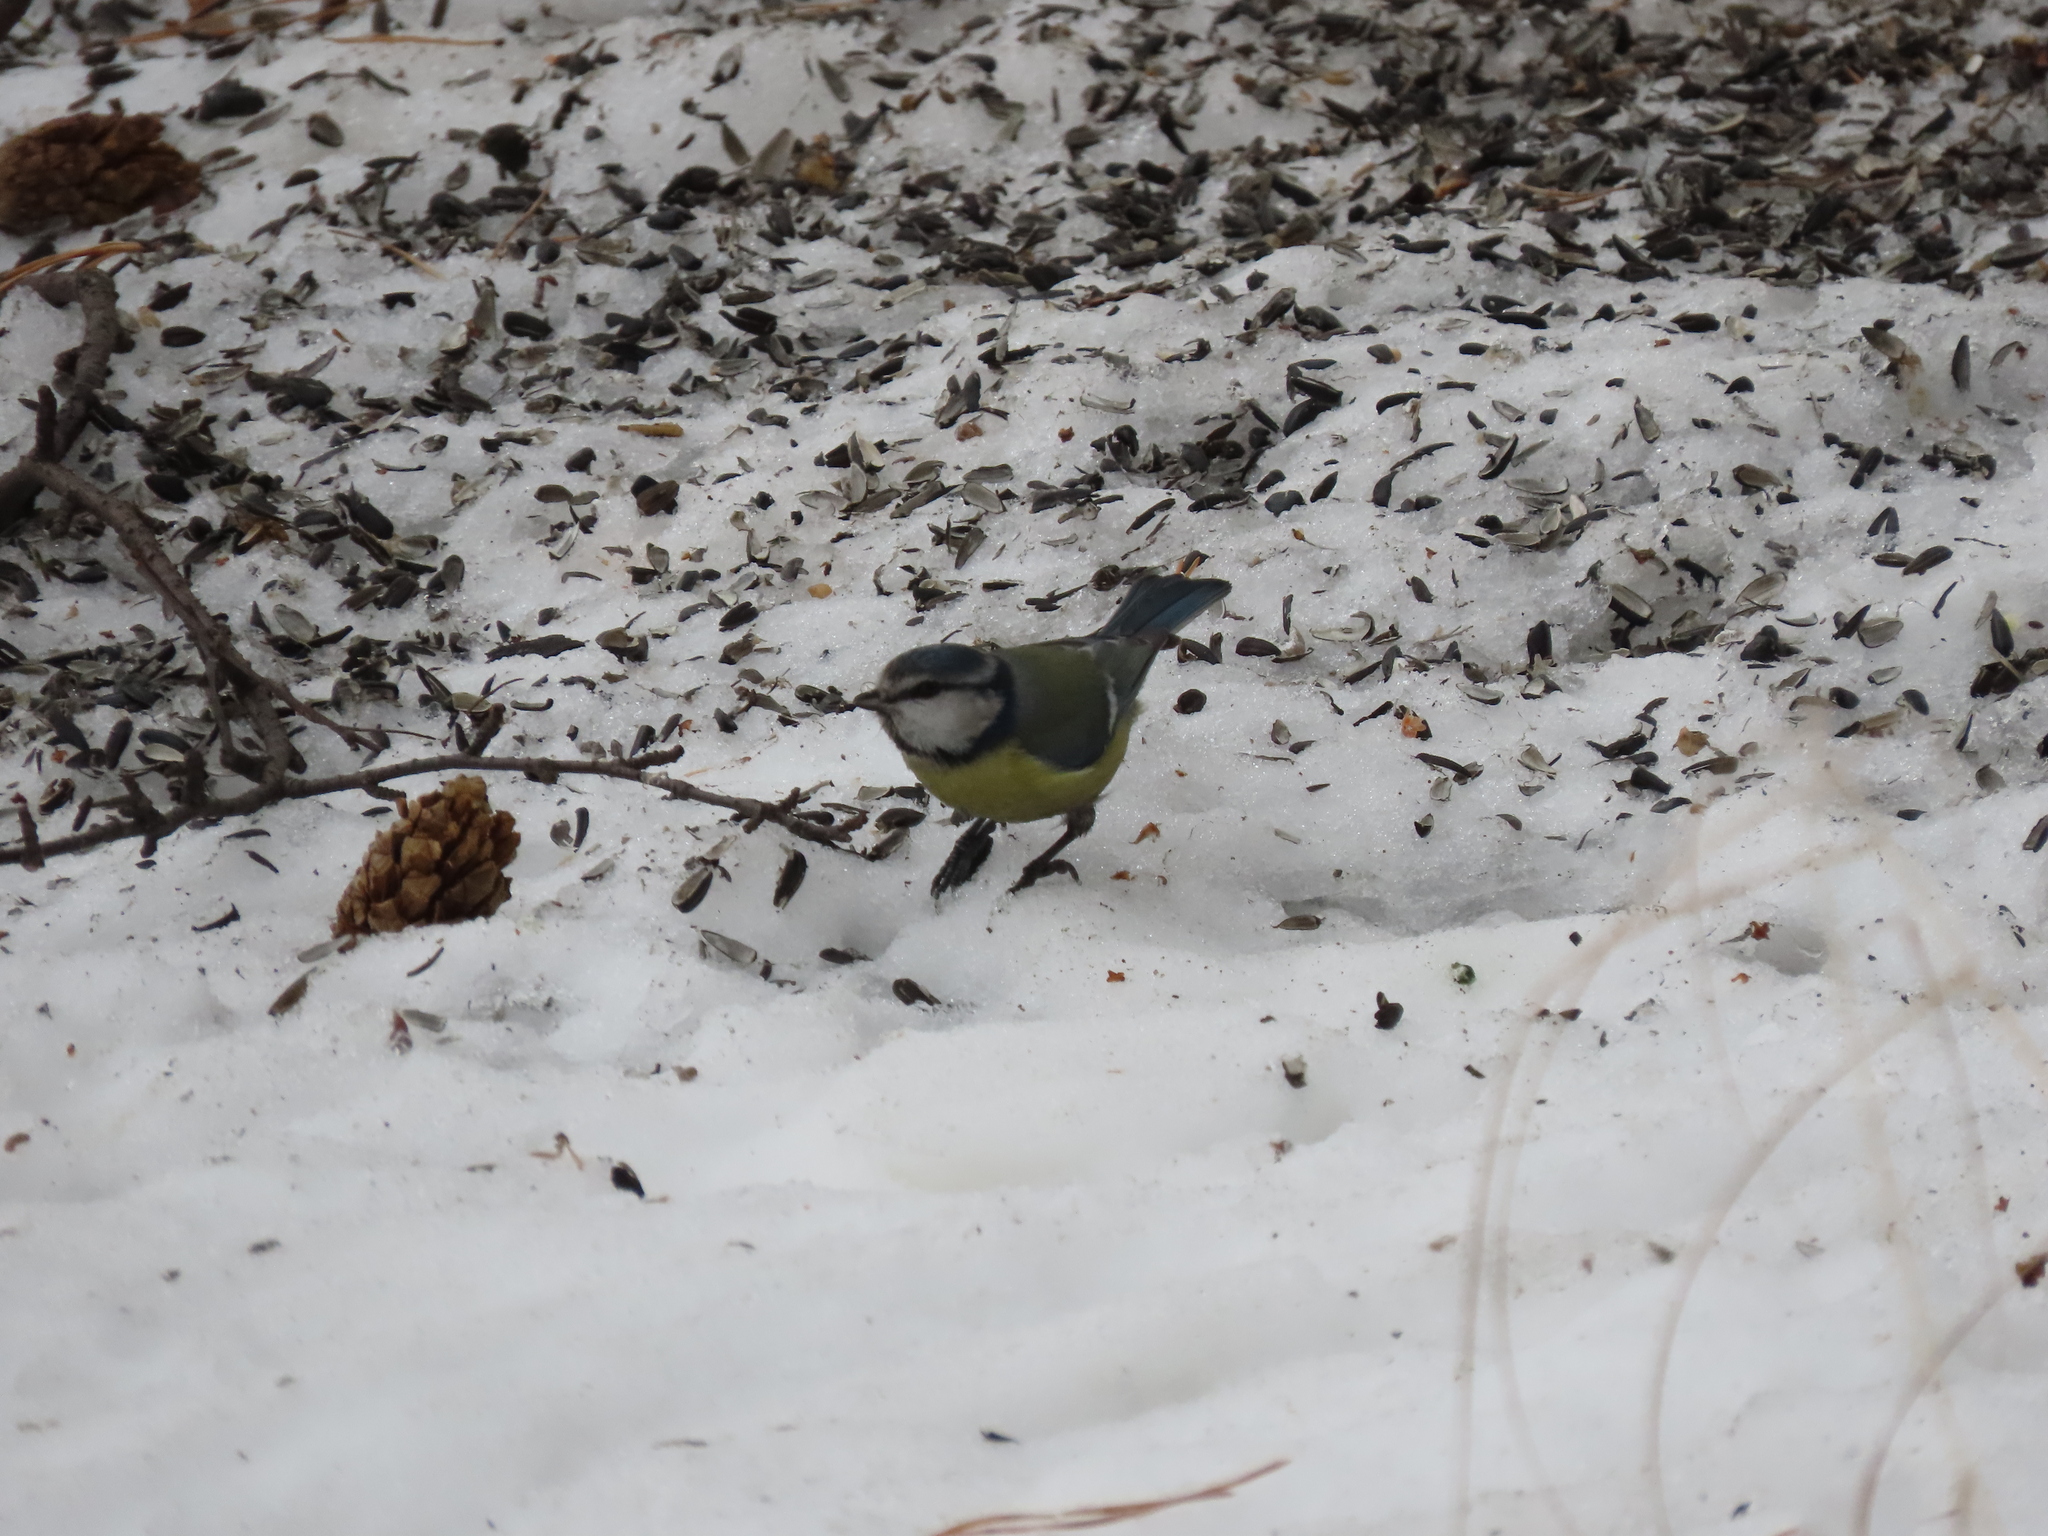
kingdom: Animalia
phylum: Chordata
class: Aves
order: Passeriformes
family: Paridae
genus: Cyanistes
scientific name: Cyanistes caeruleus
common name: Eurasian blue tit
